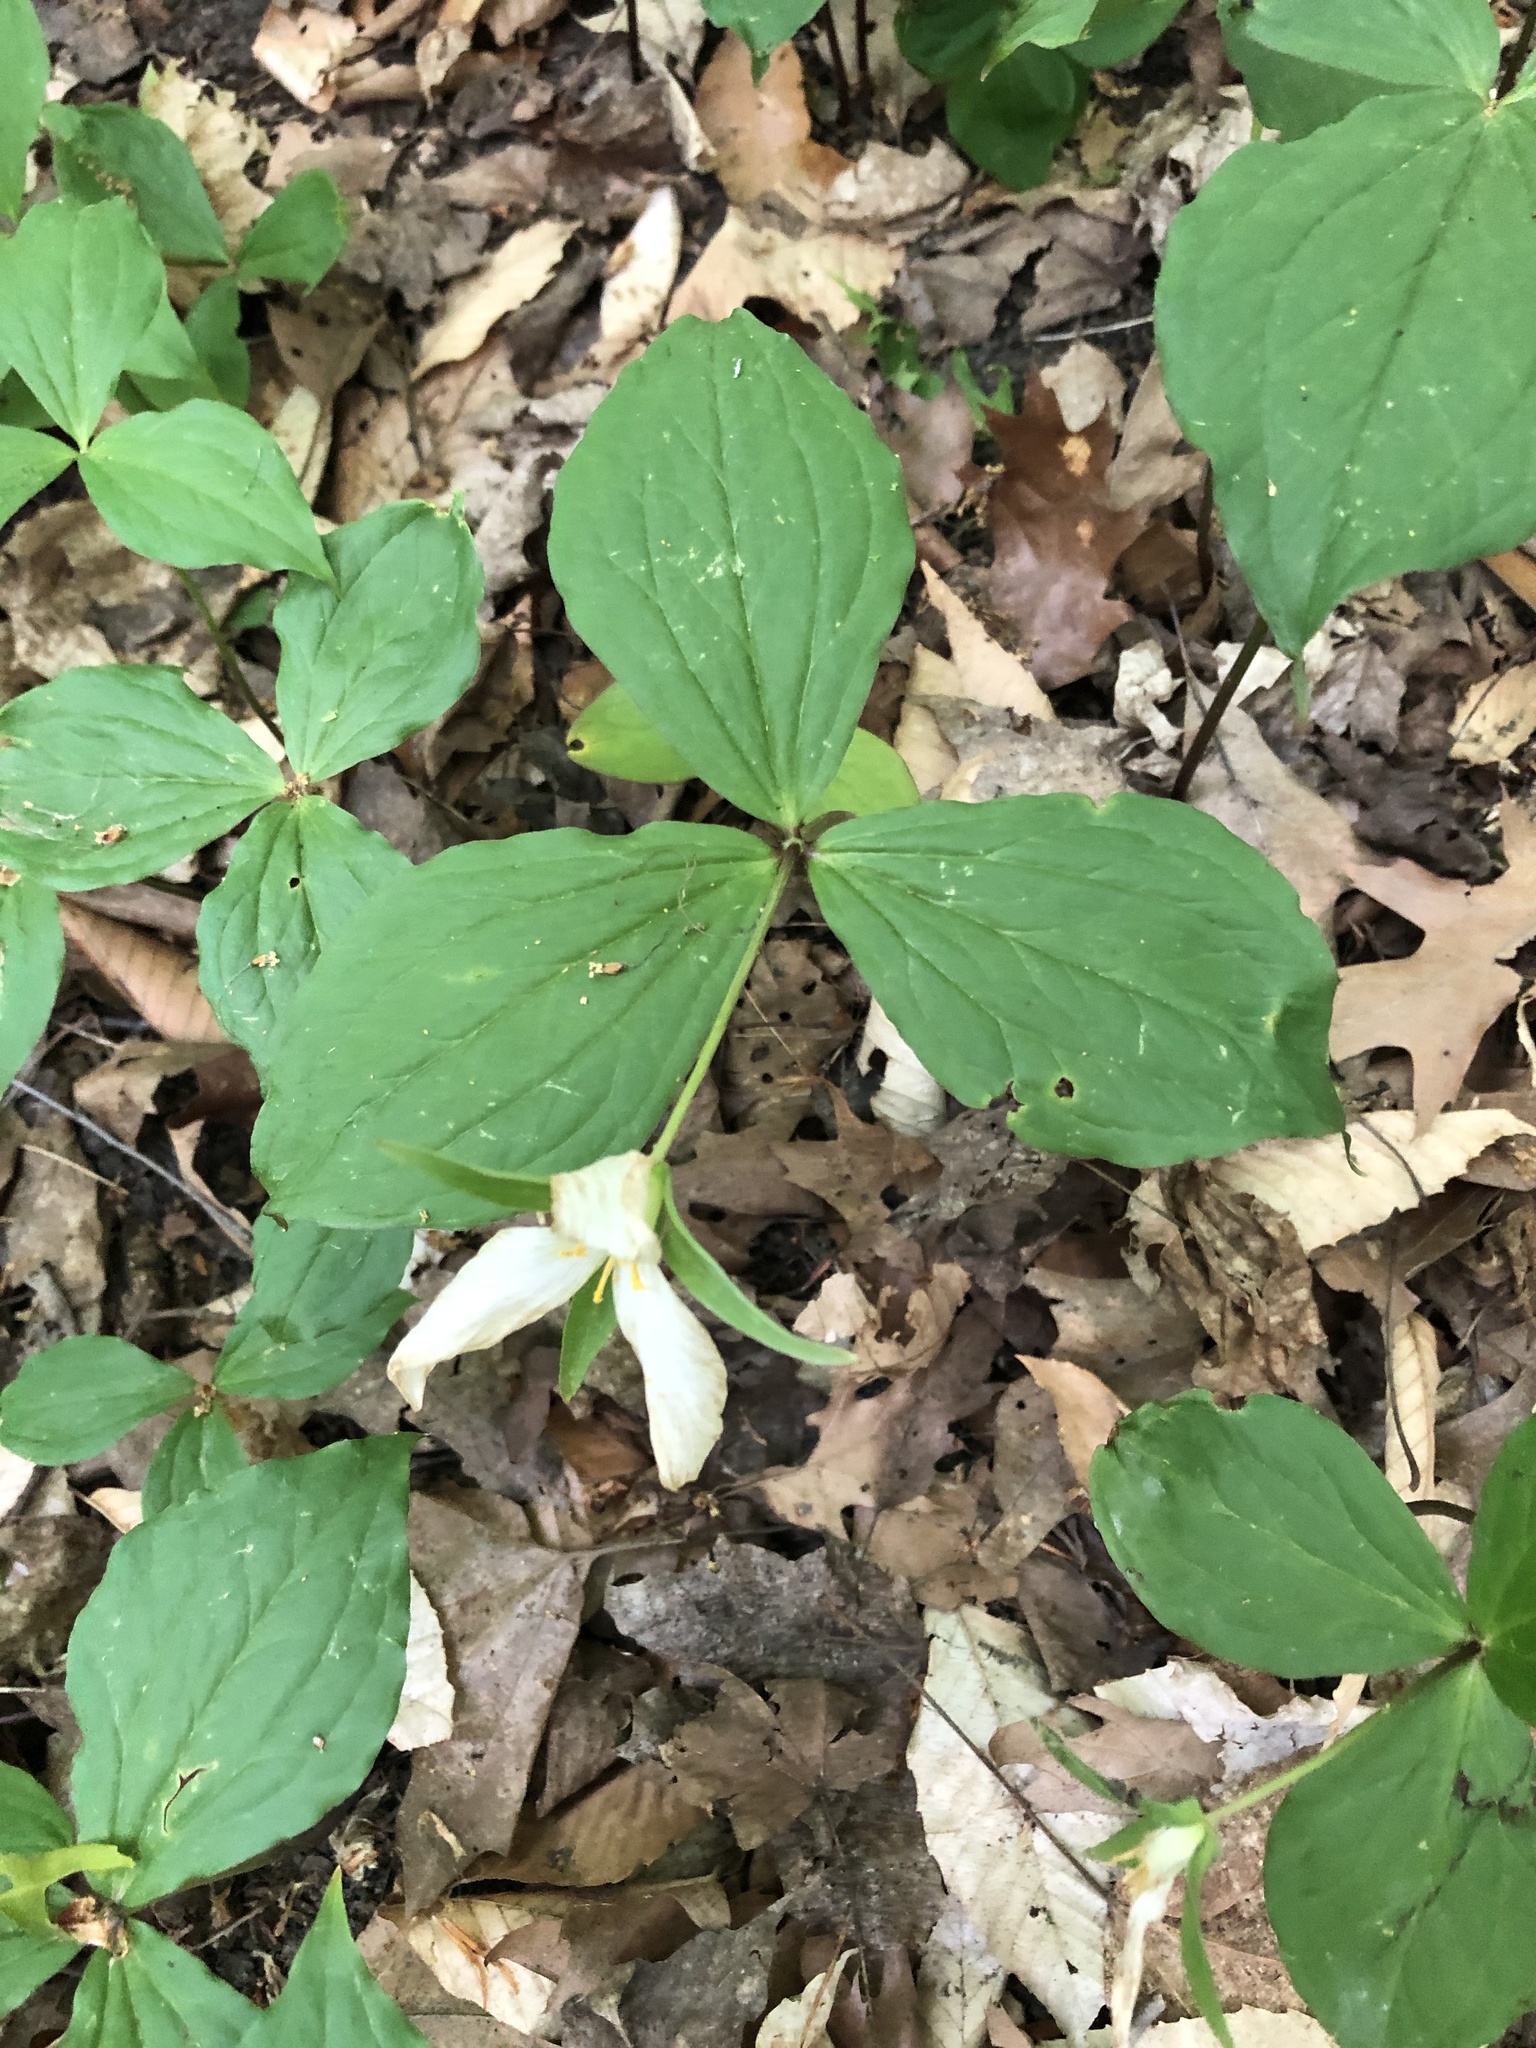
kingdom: Plantae
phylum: Tracheophyta
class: Liliopsida
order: Liliales
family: Melanthiaceae
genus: Trillium
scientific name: Trillium grandiflorum
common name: Great white trillium
